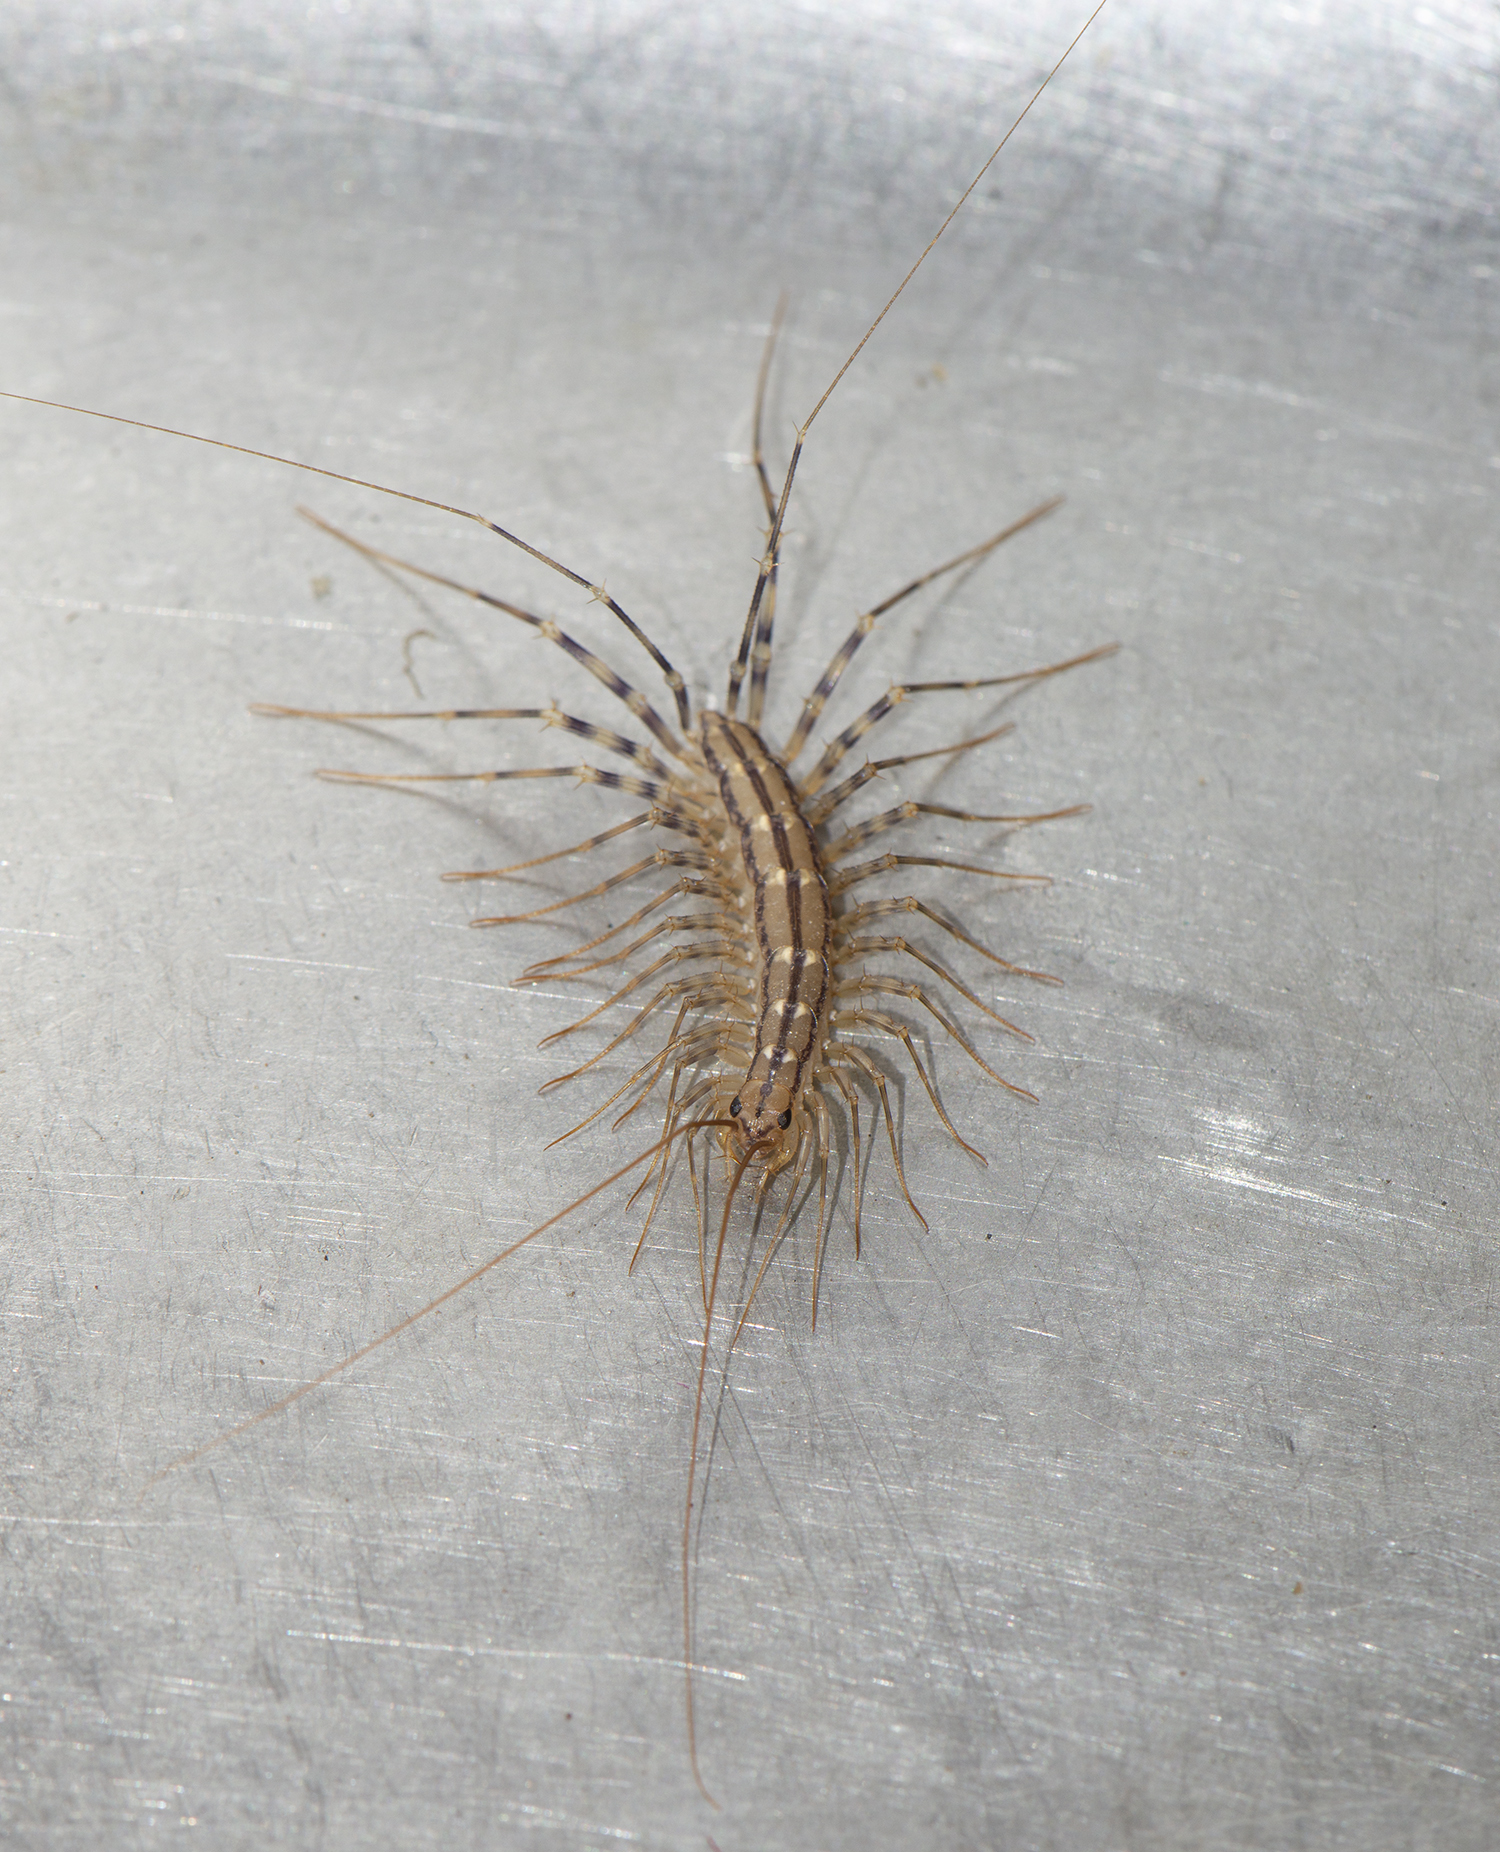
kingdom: Animalia
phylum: Arthropoda
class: Chilopoda
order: Scutigeromorpha
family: Scutigeridae
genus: Scutigera
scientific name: Scutigera coleoptrata
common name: House centipede
